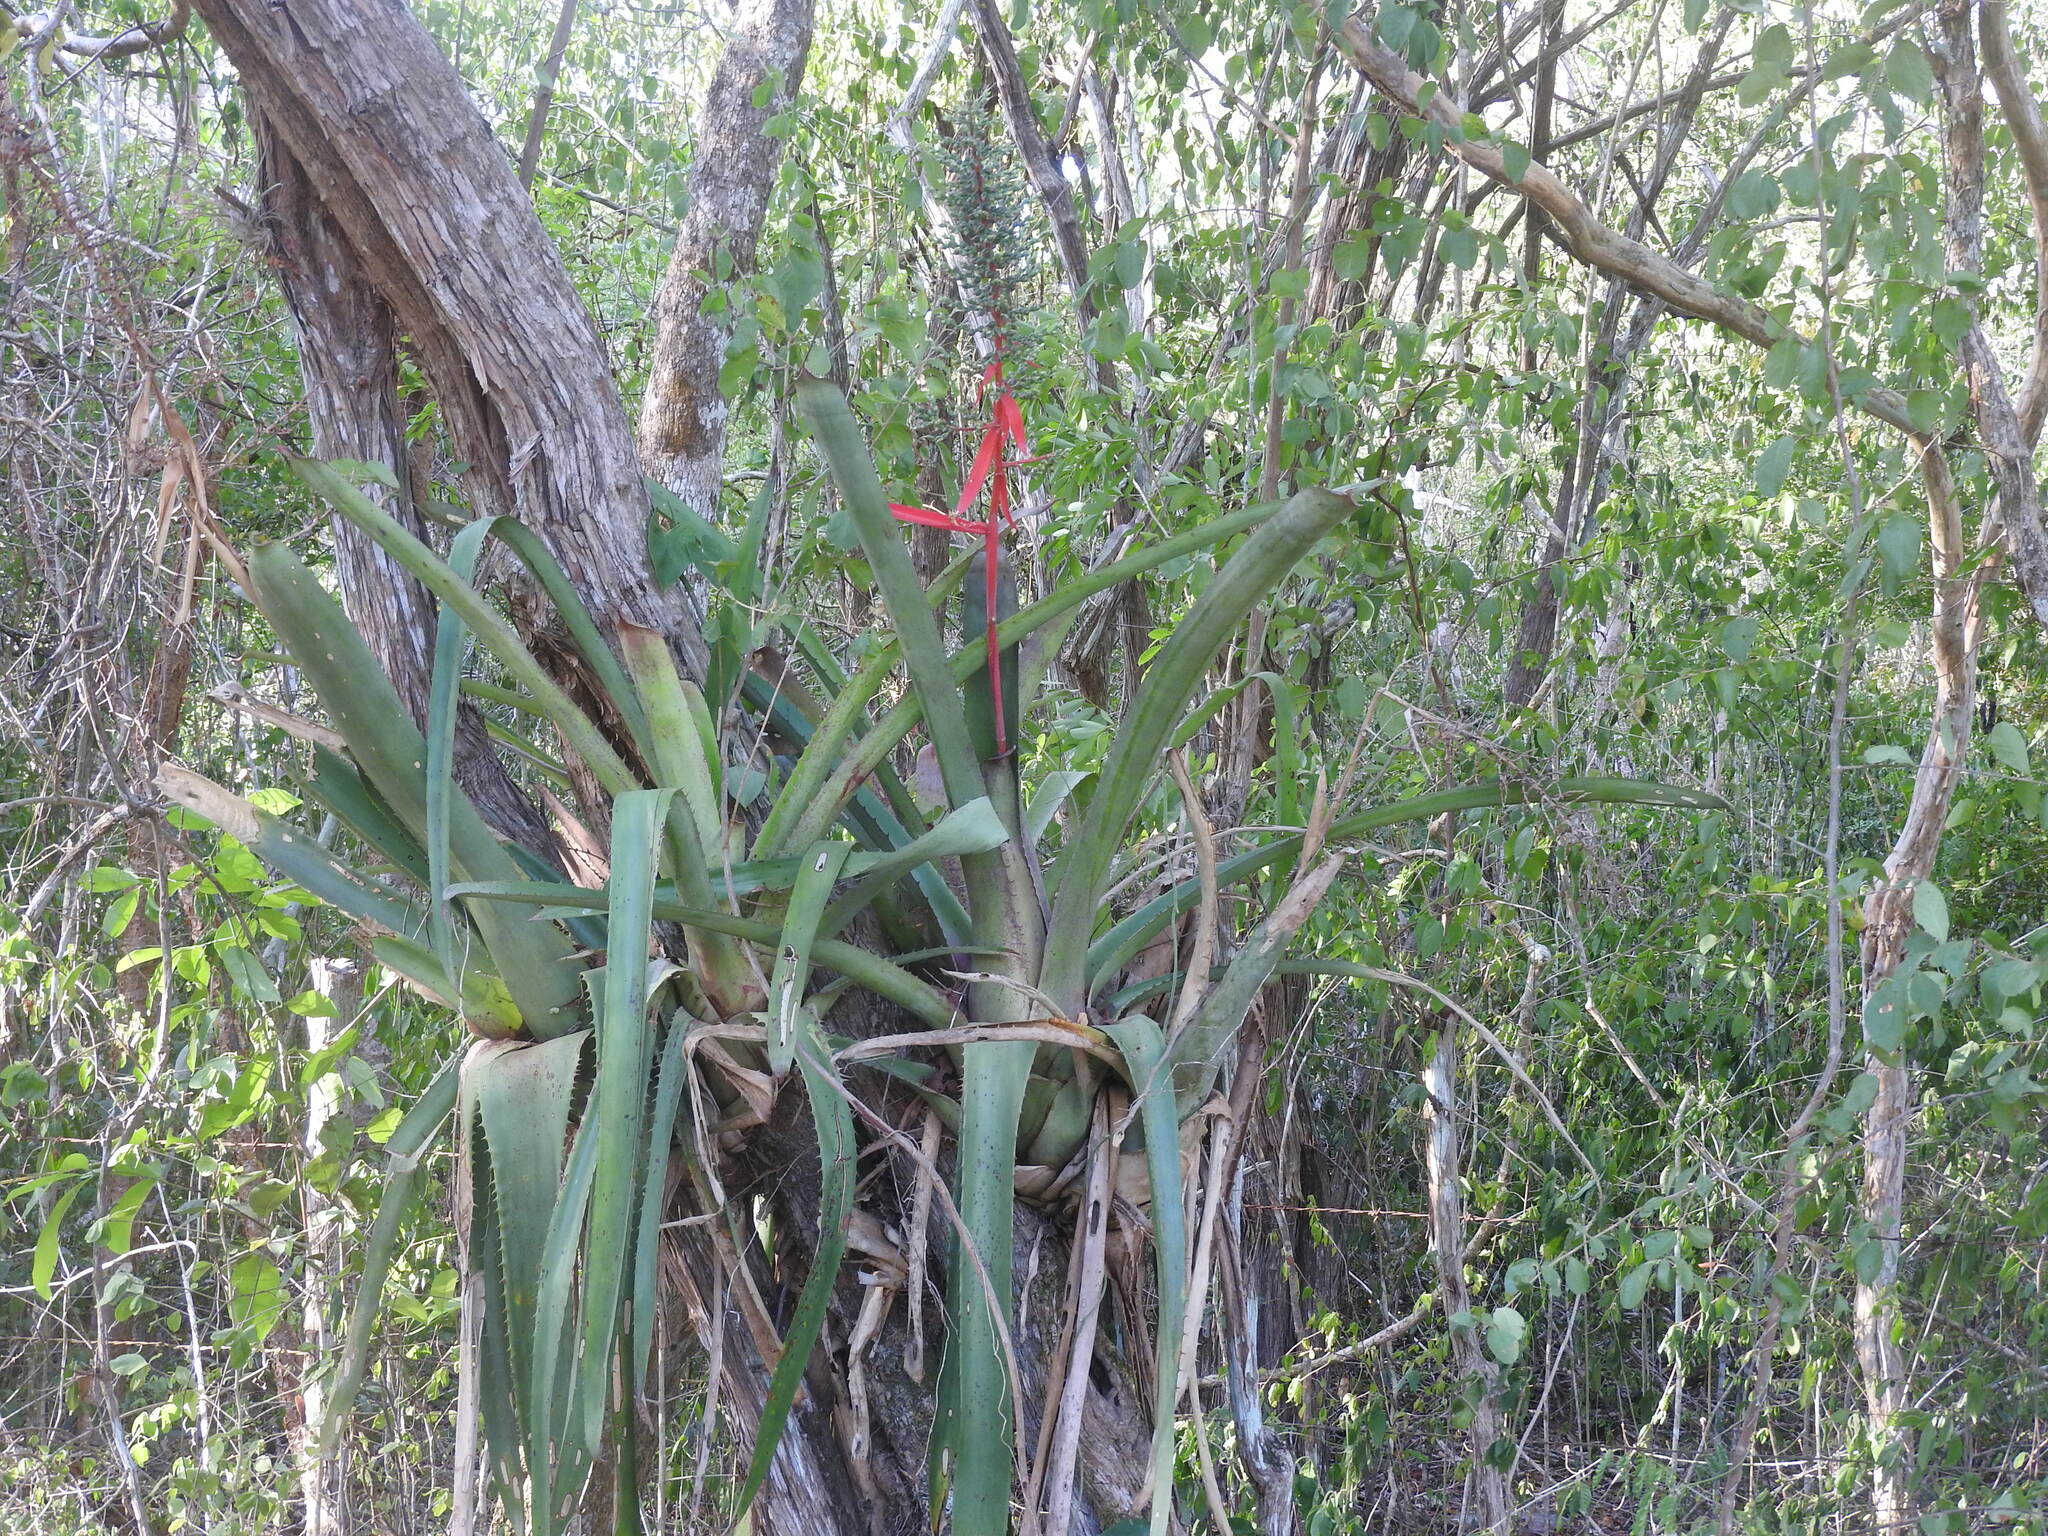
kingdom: Plantae
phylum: Tracheophyta
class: Liliopsida
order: Poales
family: Bromeliaceae
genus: Aechmea
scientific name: Aechmea bracteata
